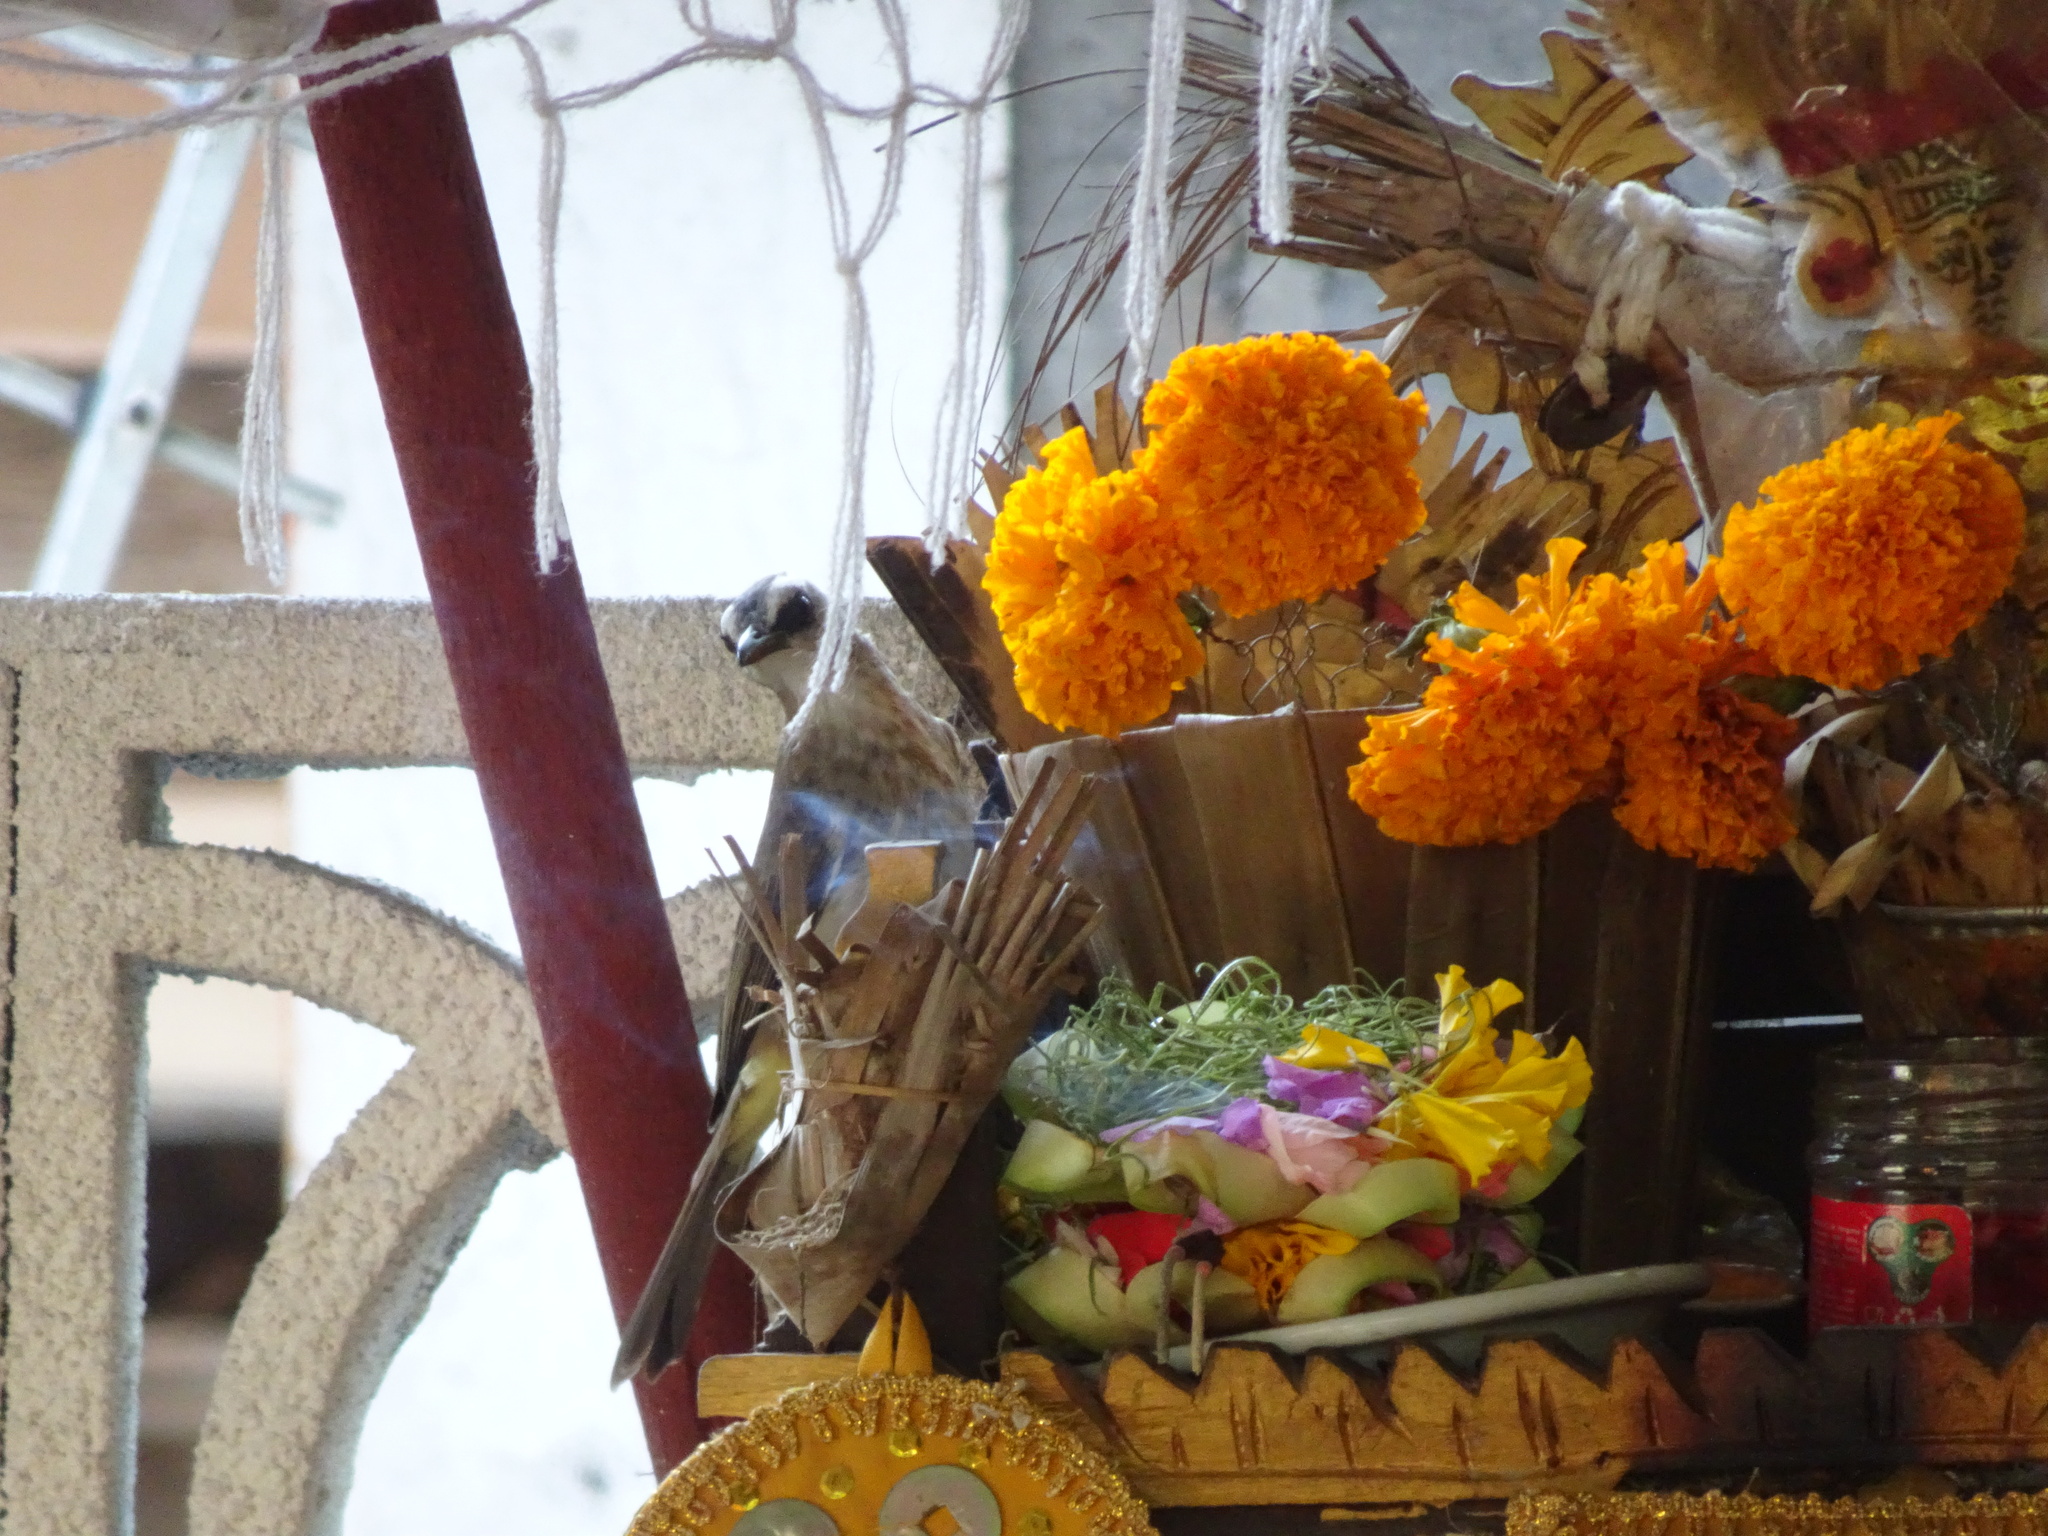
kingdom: Animalia
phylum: Chordata
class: Aves
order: Passeriformes
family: Pycnonotidae
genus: Pycnonotus
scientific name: Pycnonotus goiavier
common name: Yellow-vented bulbul
